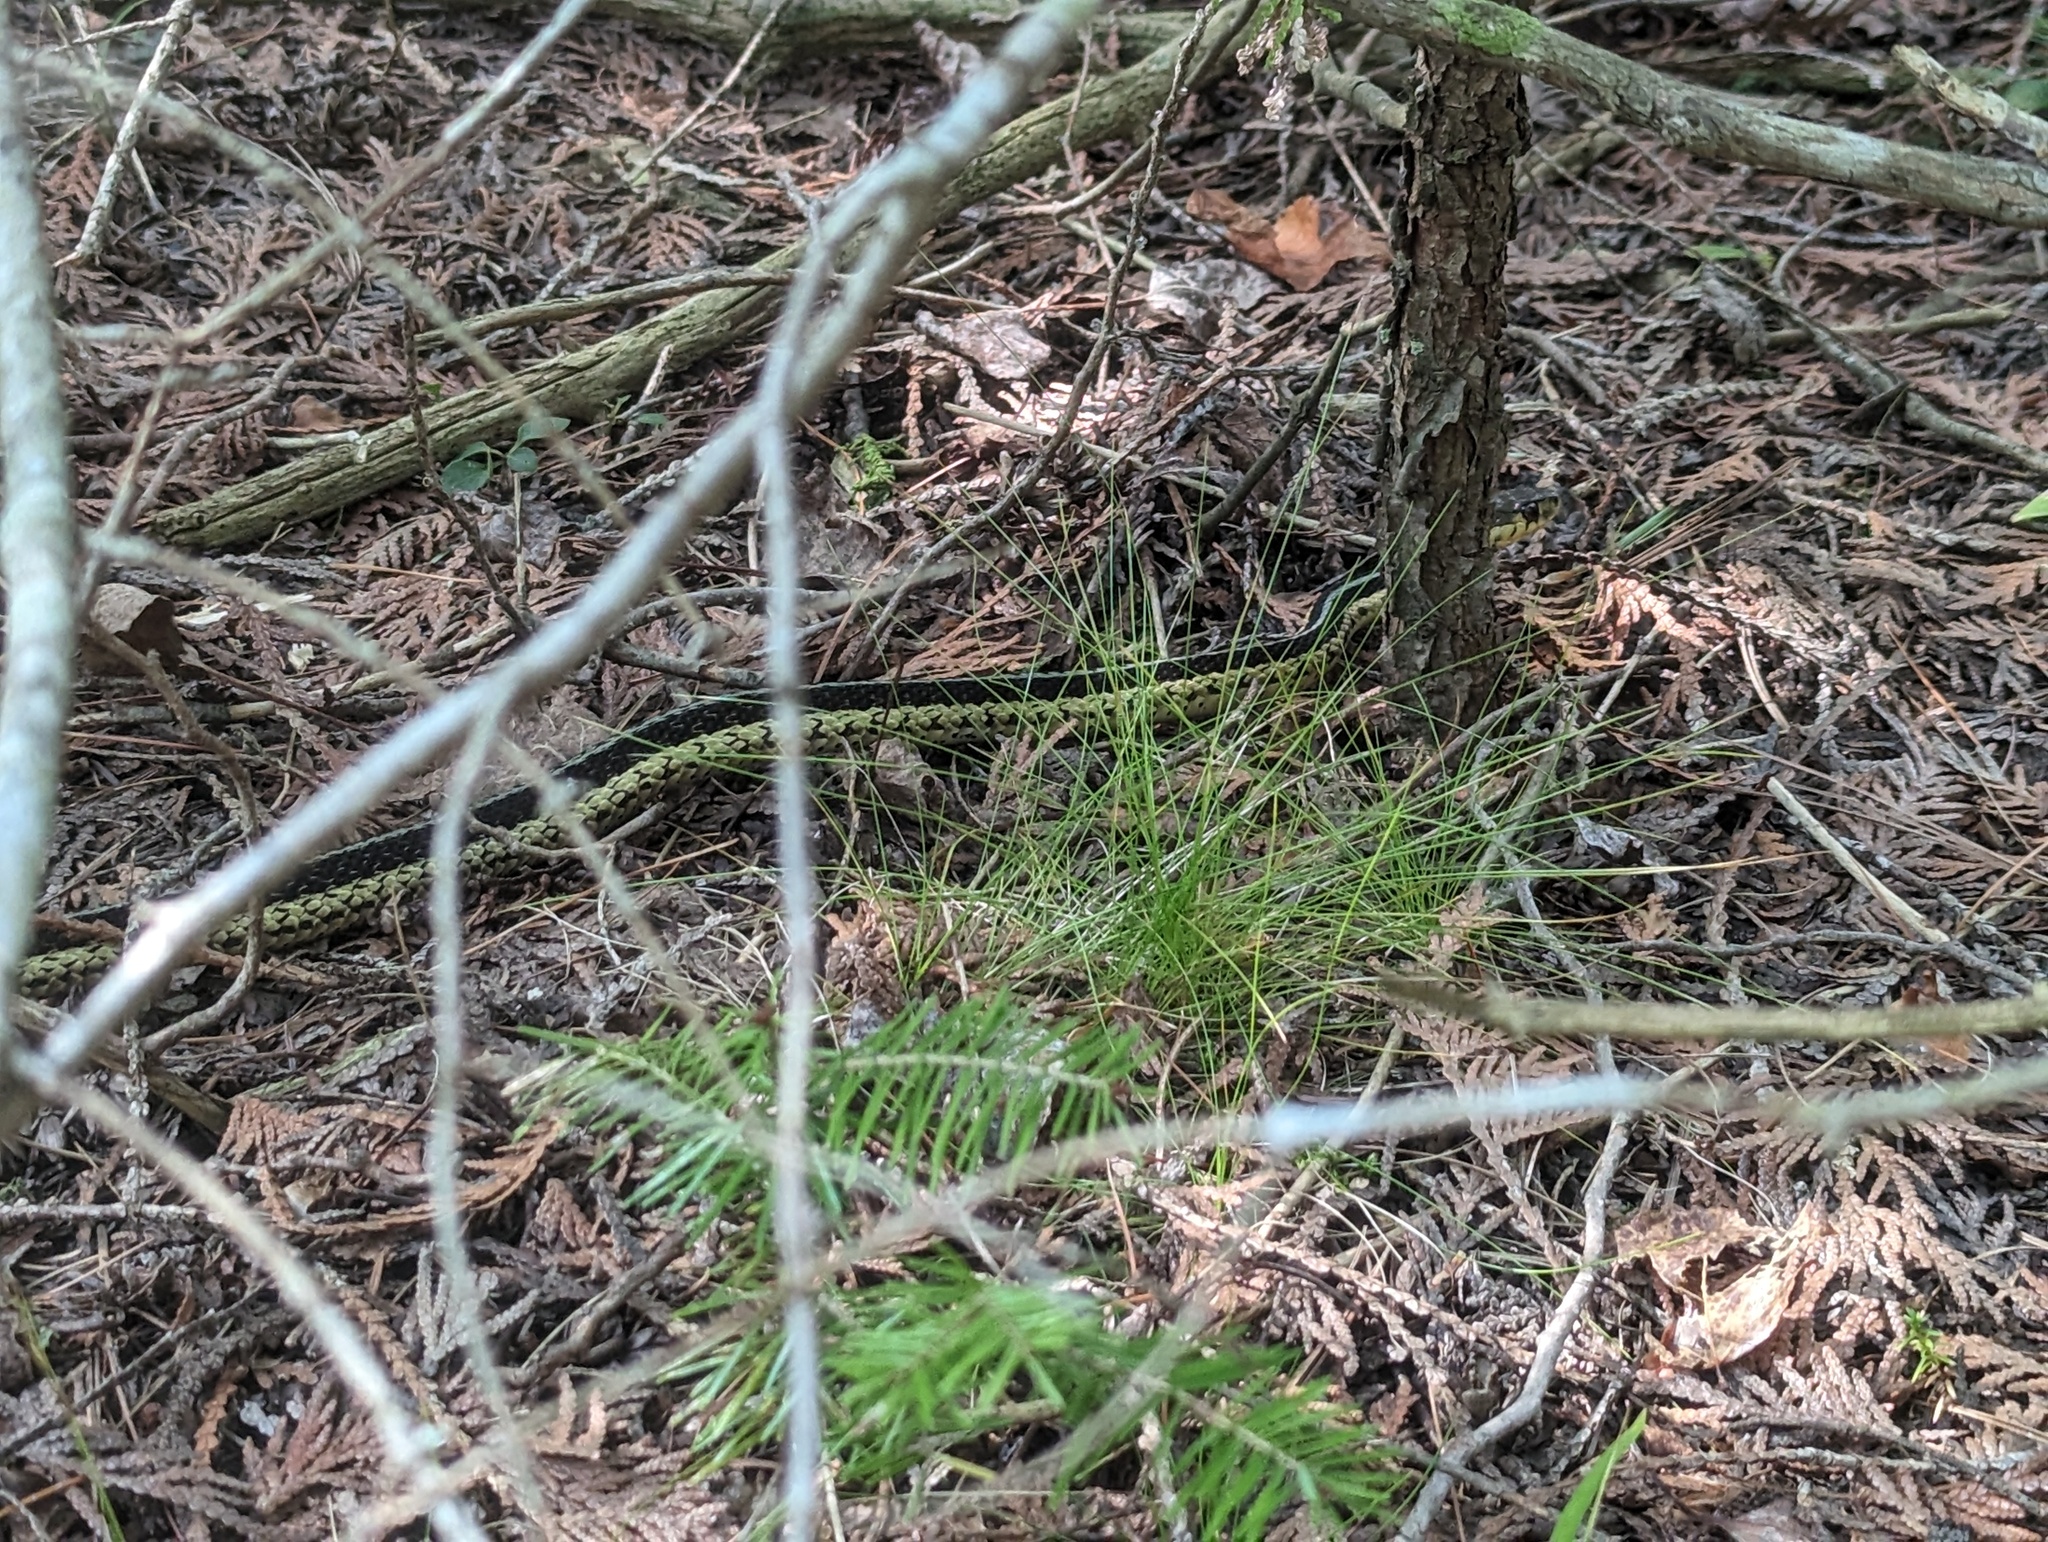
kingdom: Animalia
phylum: Chordata
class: Squamata
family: Colubridae
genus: Thamnophis
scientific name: Thamnophis sirtalis
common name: Common garter snake
